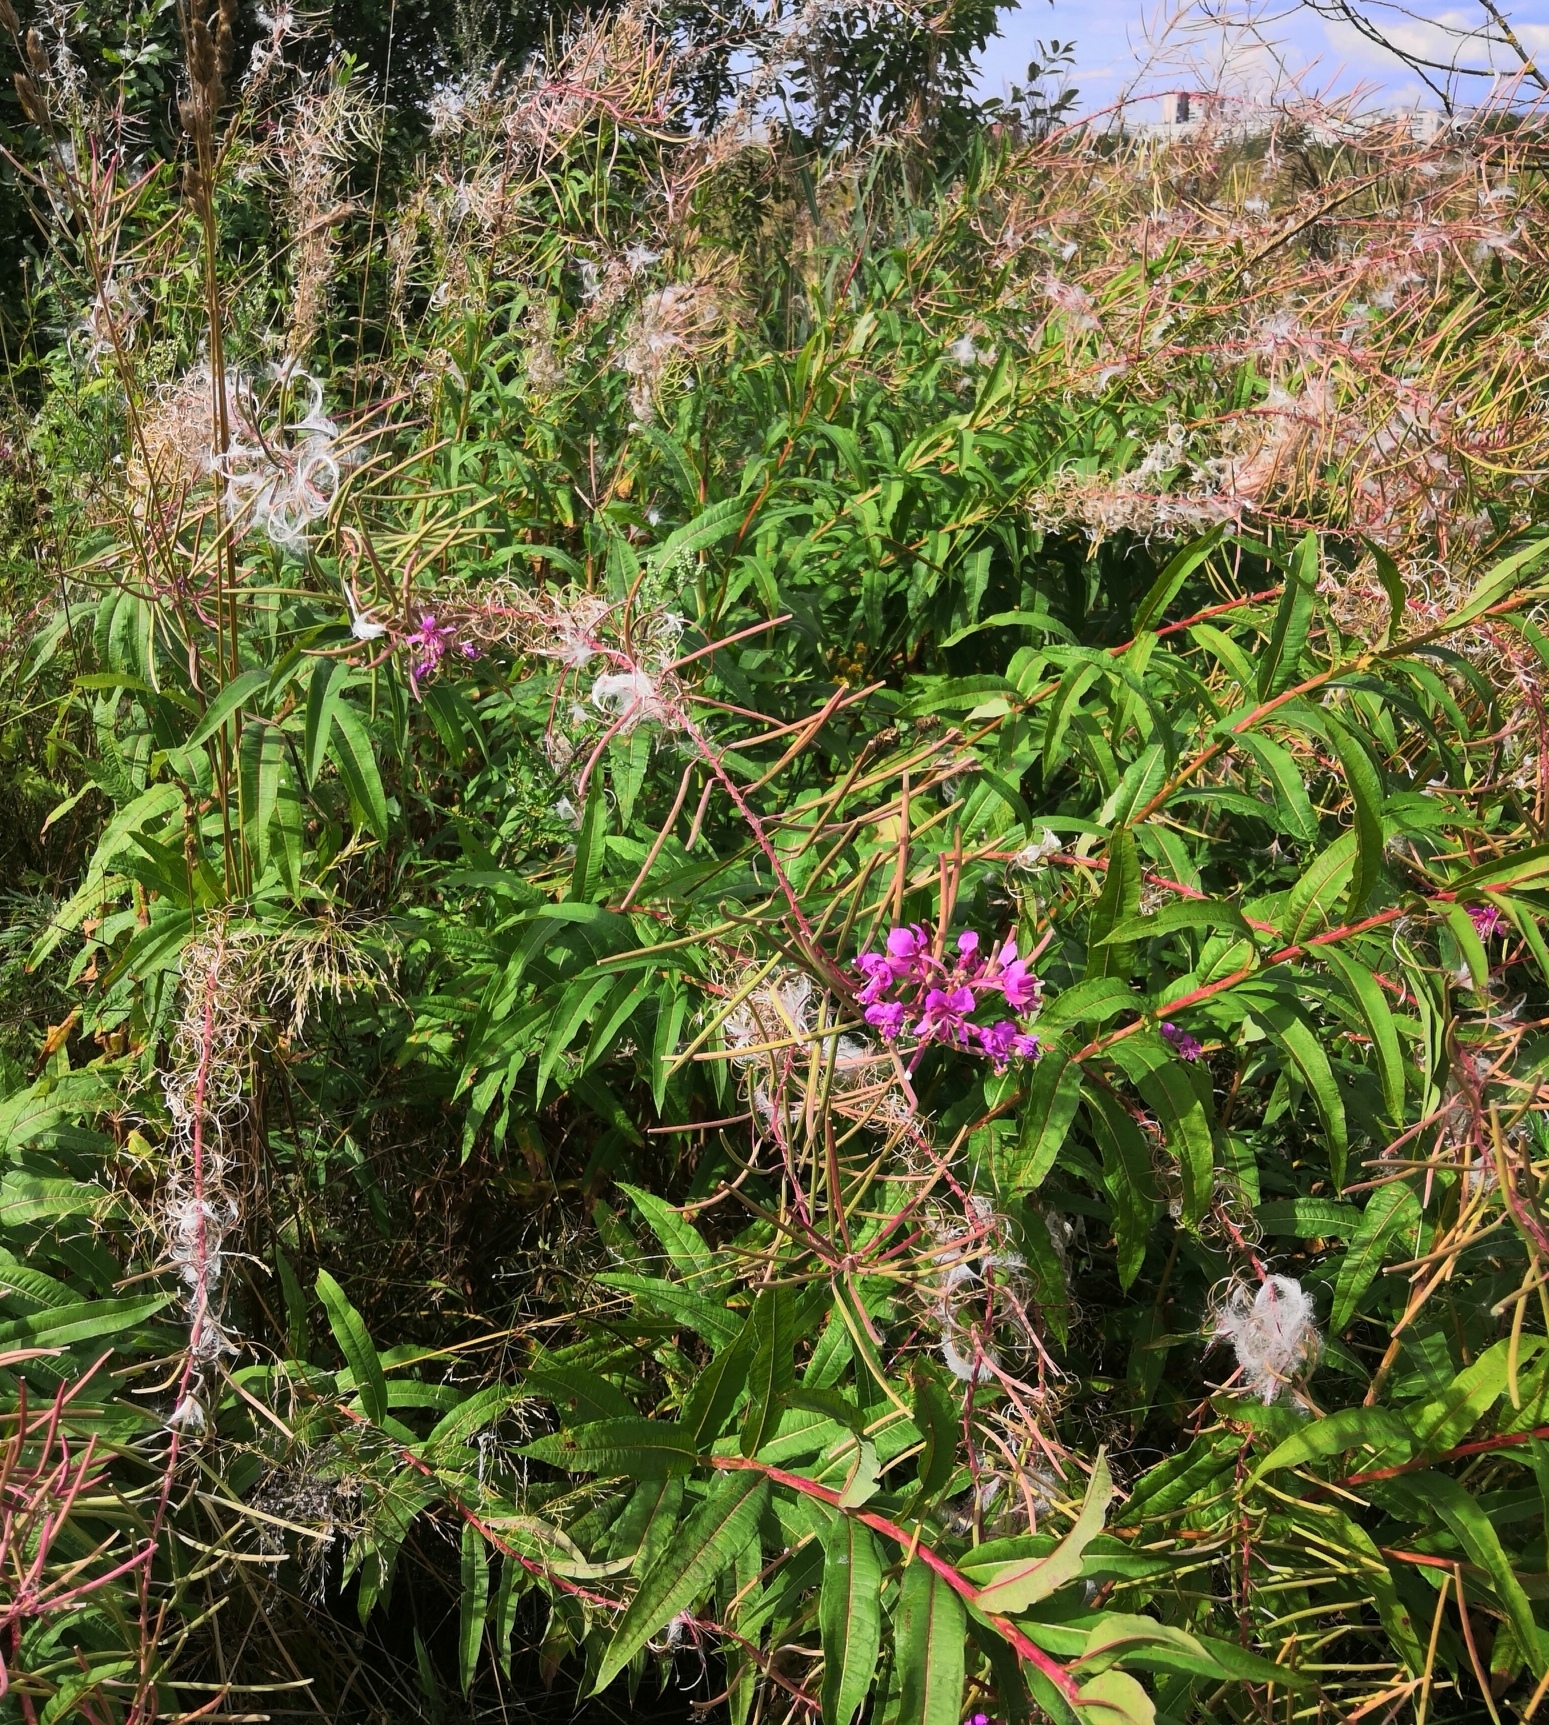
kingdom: Plantae
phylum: Tracheophyta
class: Magnoliopsida
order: Myrtales
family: Onagraceae
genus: Chamaenerion
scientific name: Chamaenerion angustifolium
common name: Fireweed
